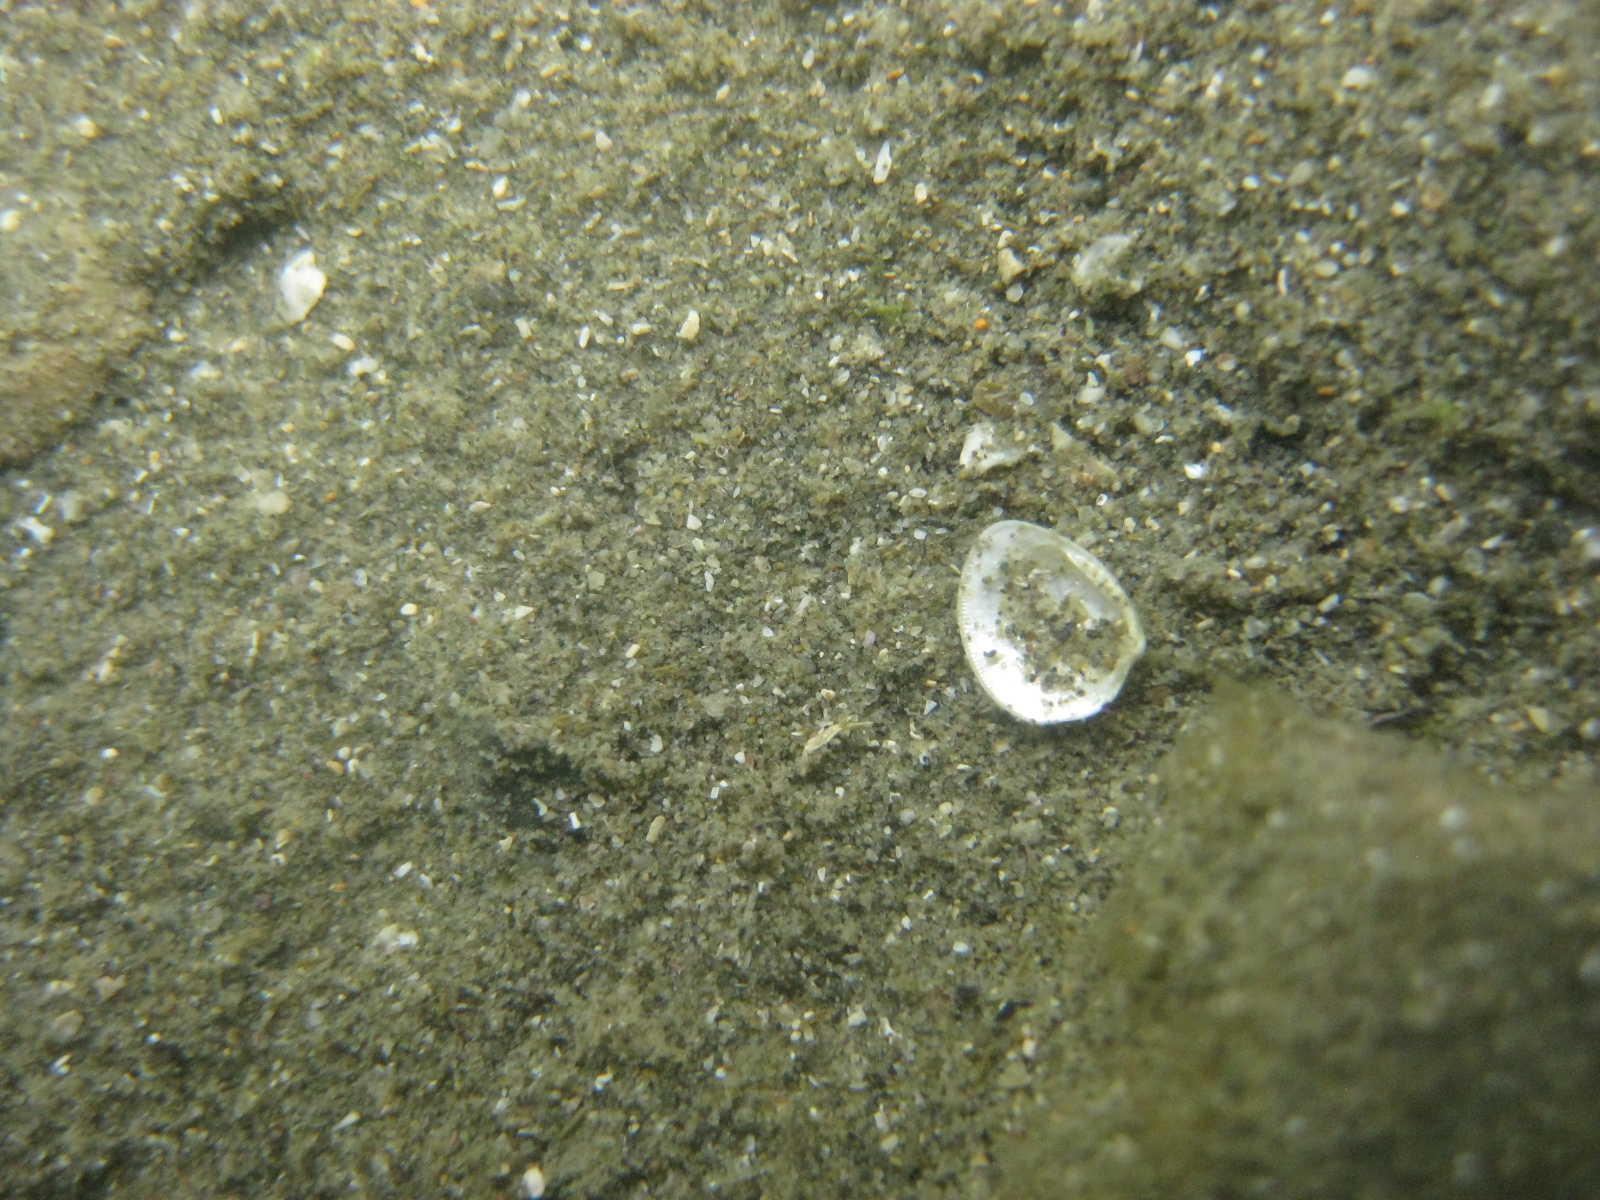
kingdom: Animalia
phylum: Mollusca
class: Bivalvia
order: Nuculida
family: Nuculidae
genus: Linucula
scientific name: Linucula hartvigiana
